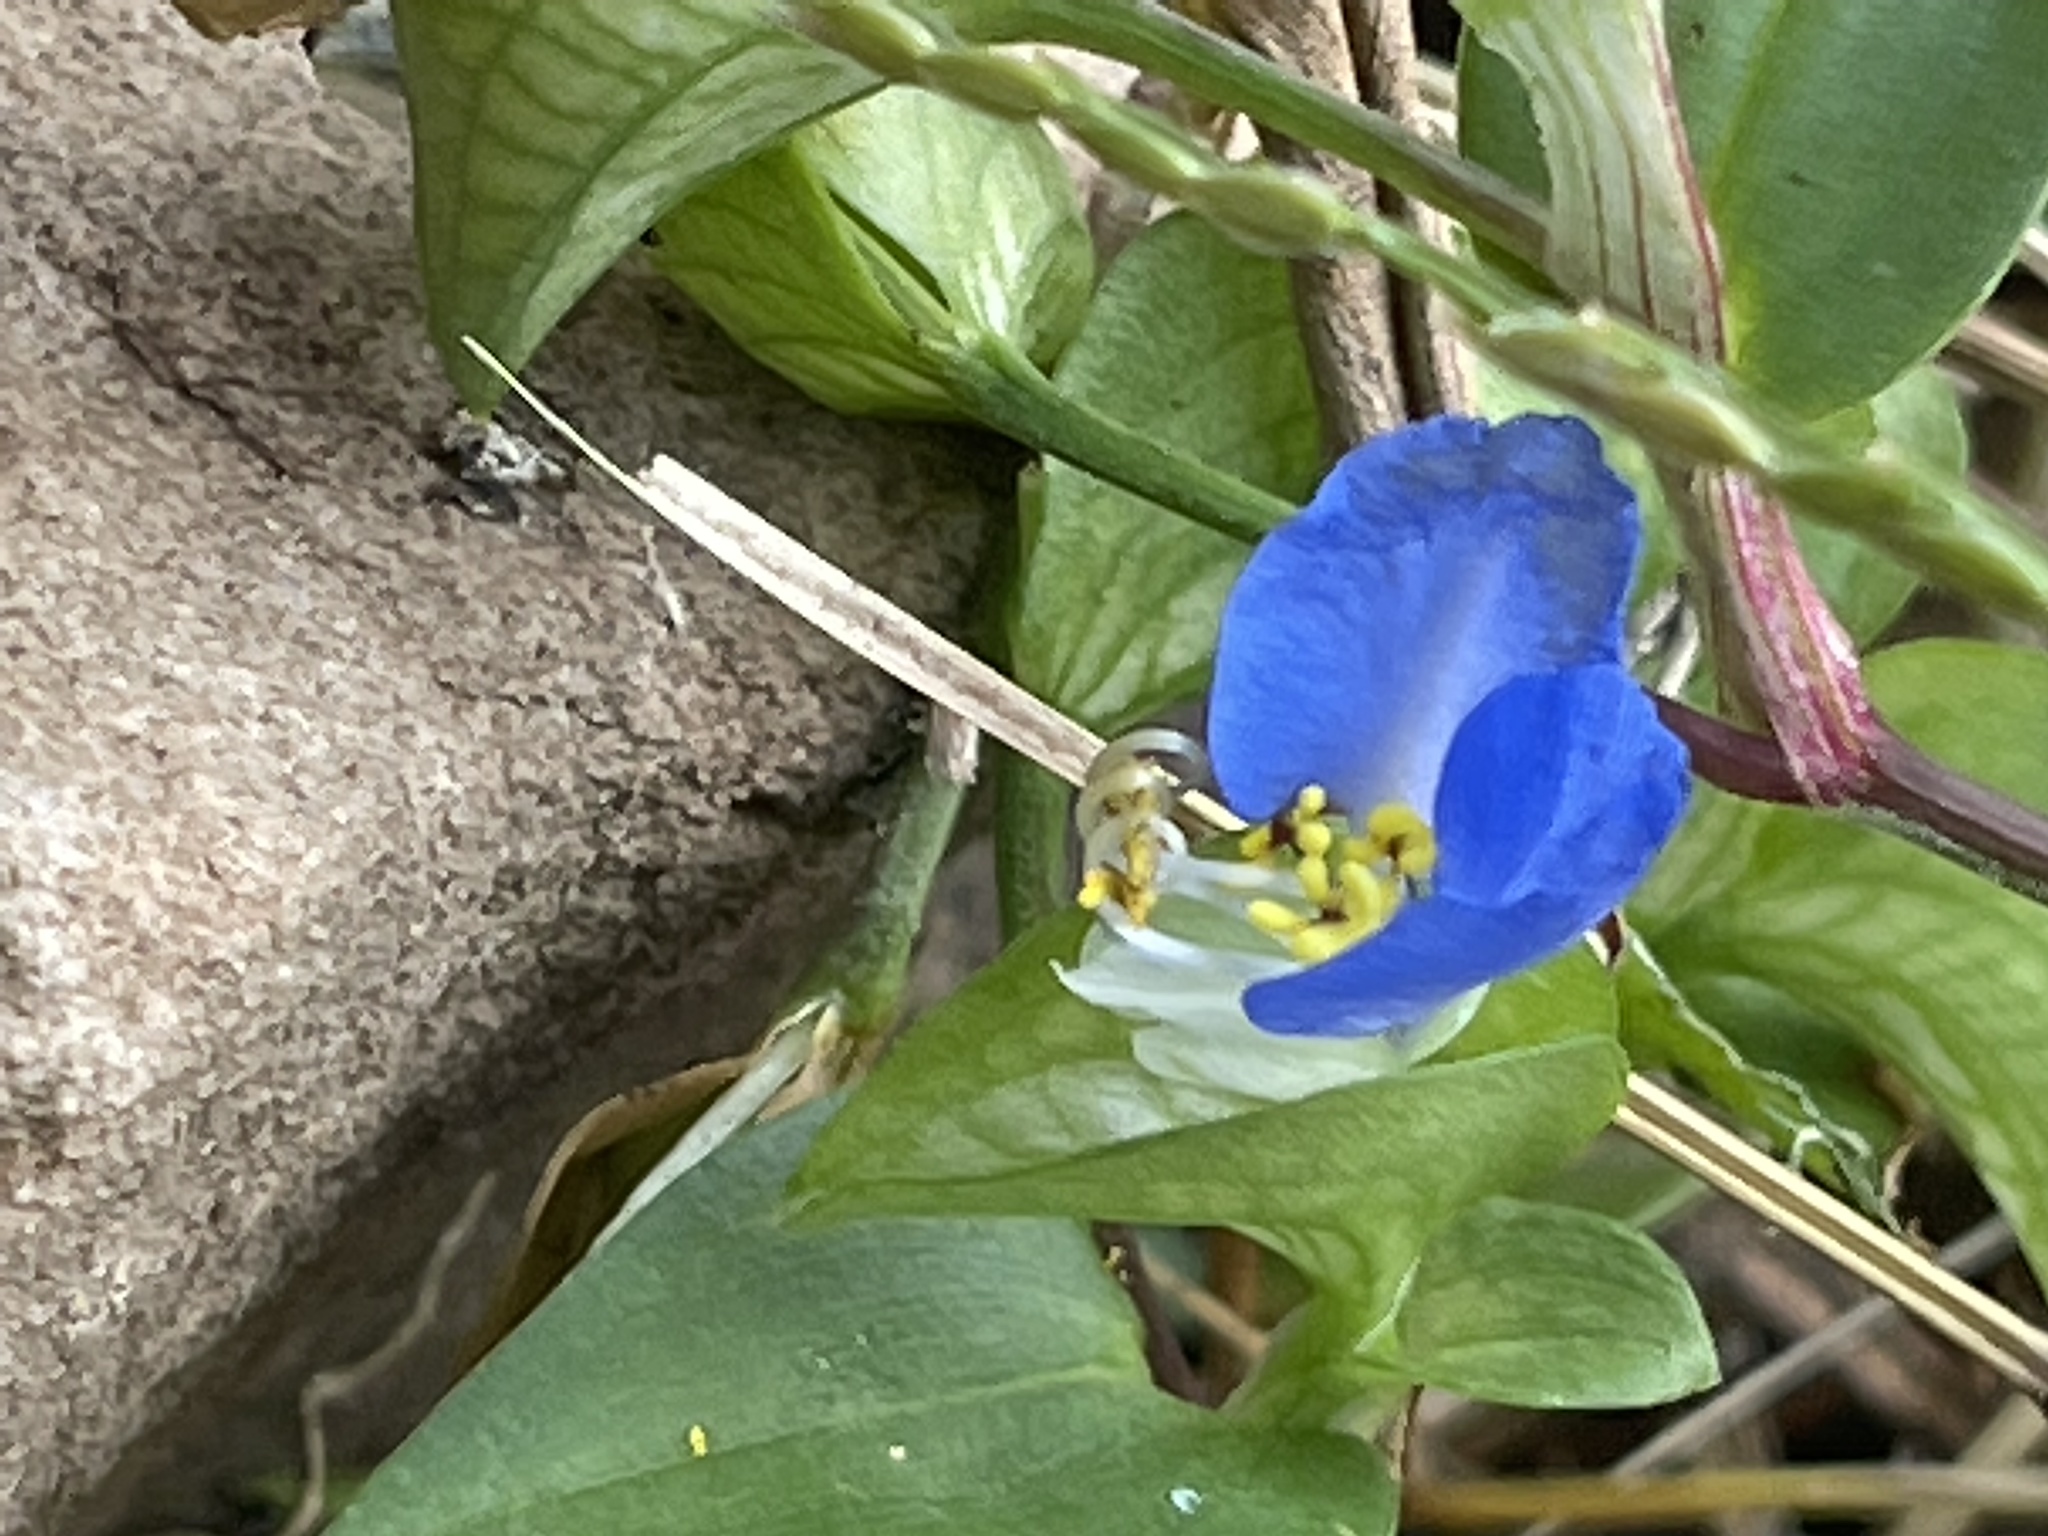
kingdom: Plantae
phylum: Tracheophyta
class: Liliopsida
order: Commelinales
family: Commelinaceae
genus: Commelina
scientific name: Commelina communis
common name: Asiatic dayflower
